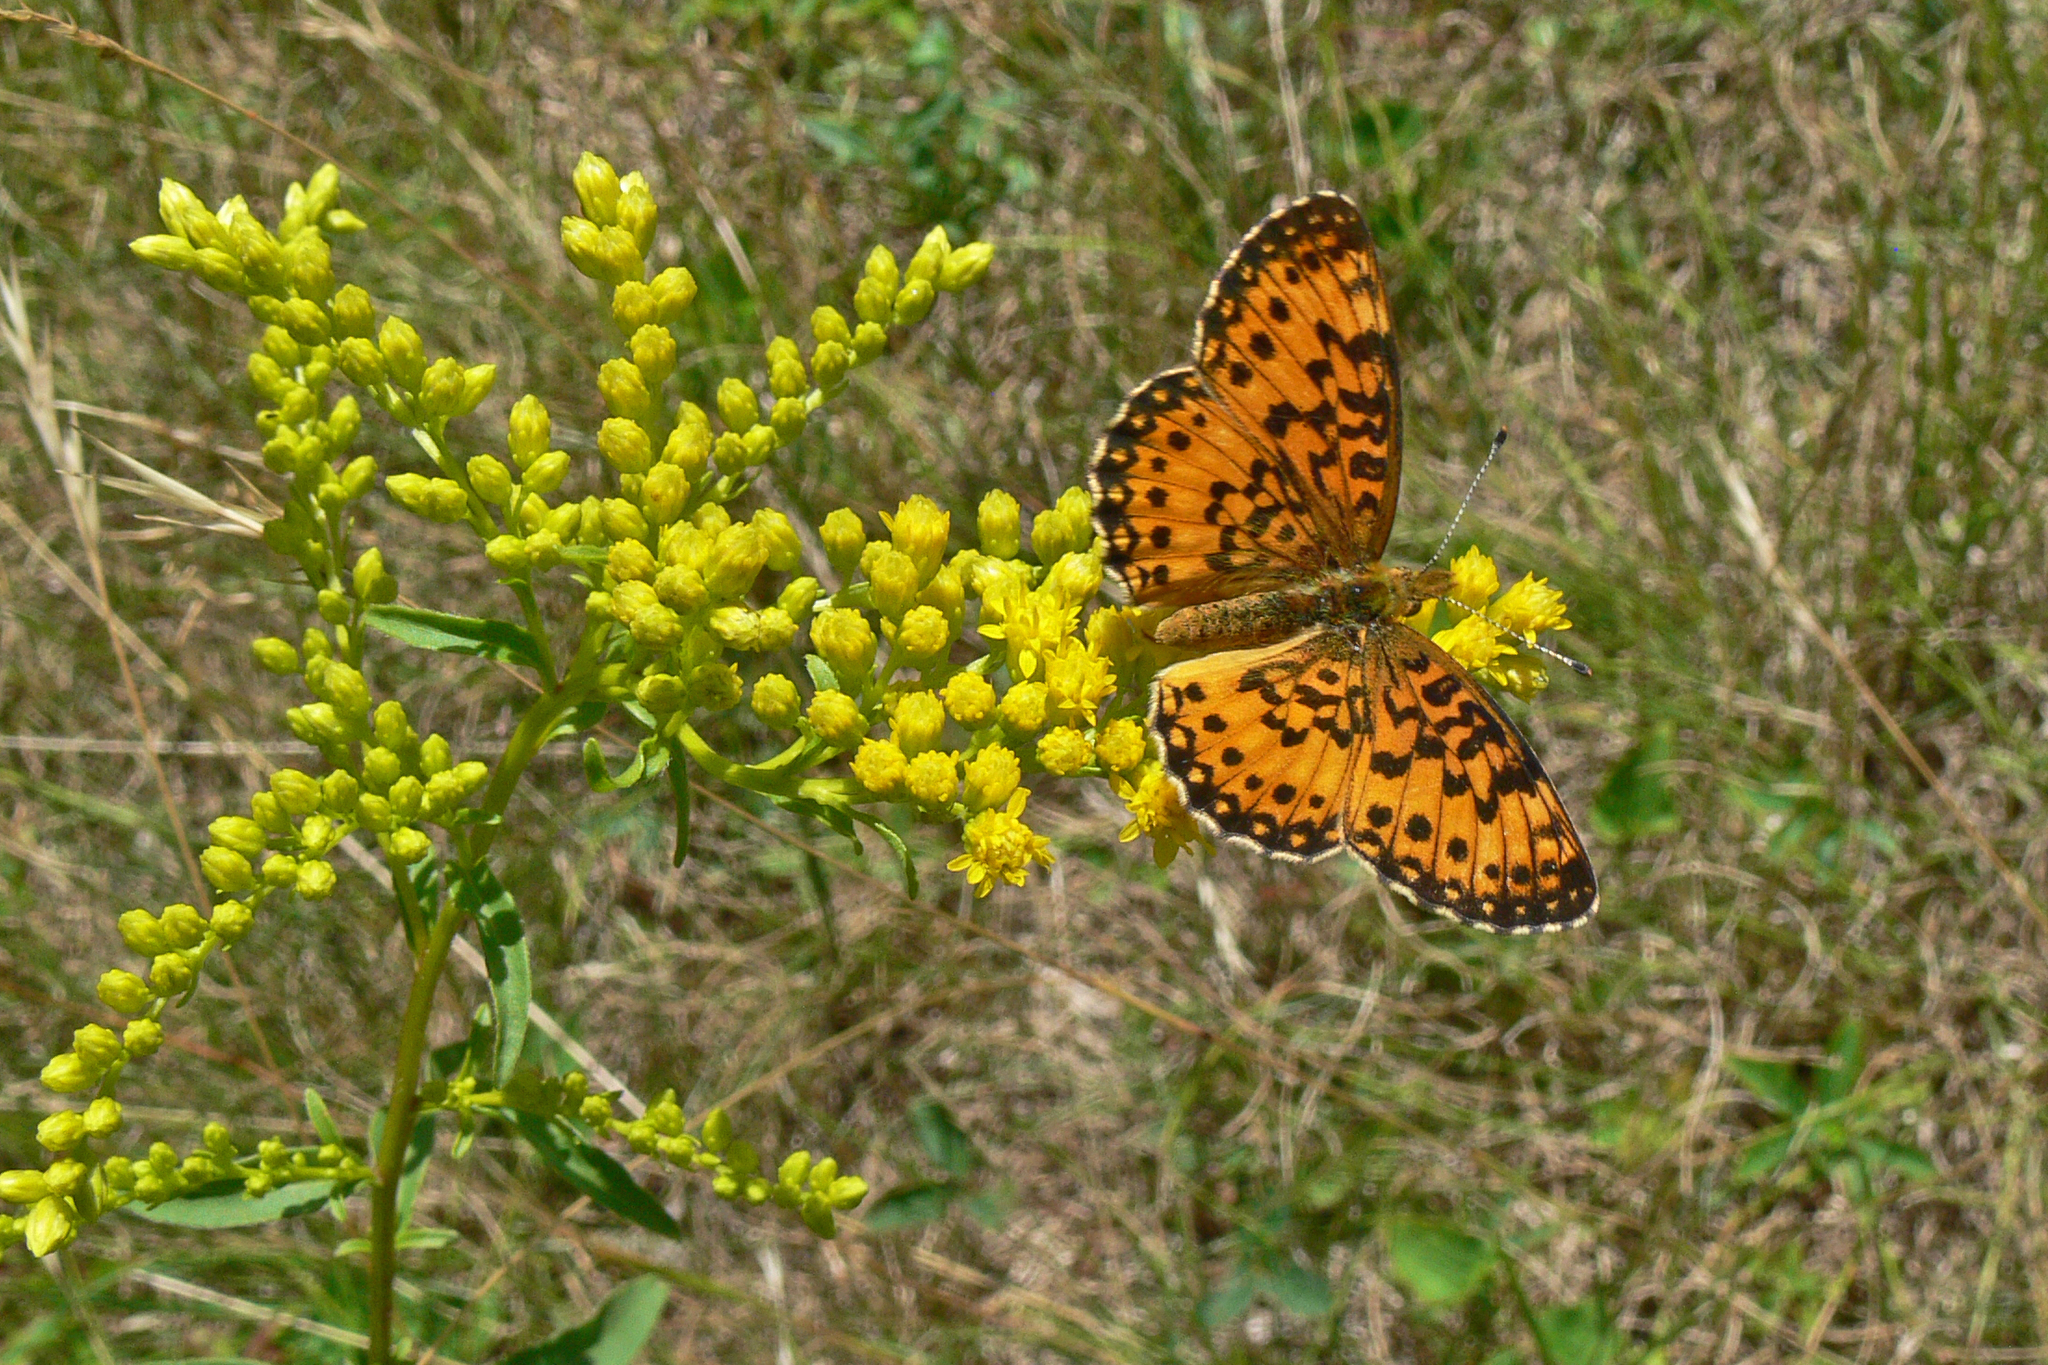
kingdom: Animalia
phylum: Arthropoda
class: Insecta
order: Lepidoptera
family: Nymphalidae
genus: Boloria
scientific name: Boloria
